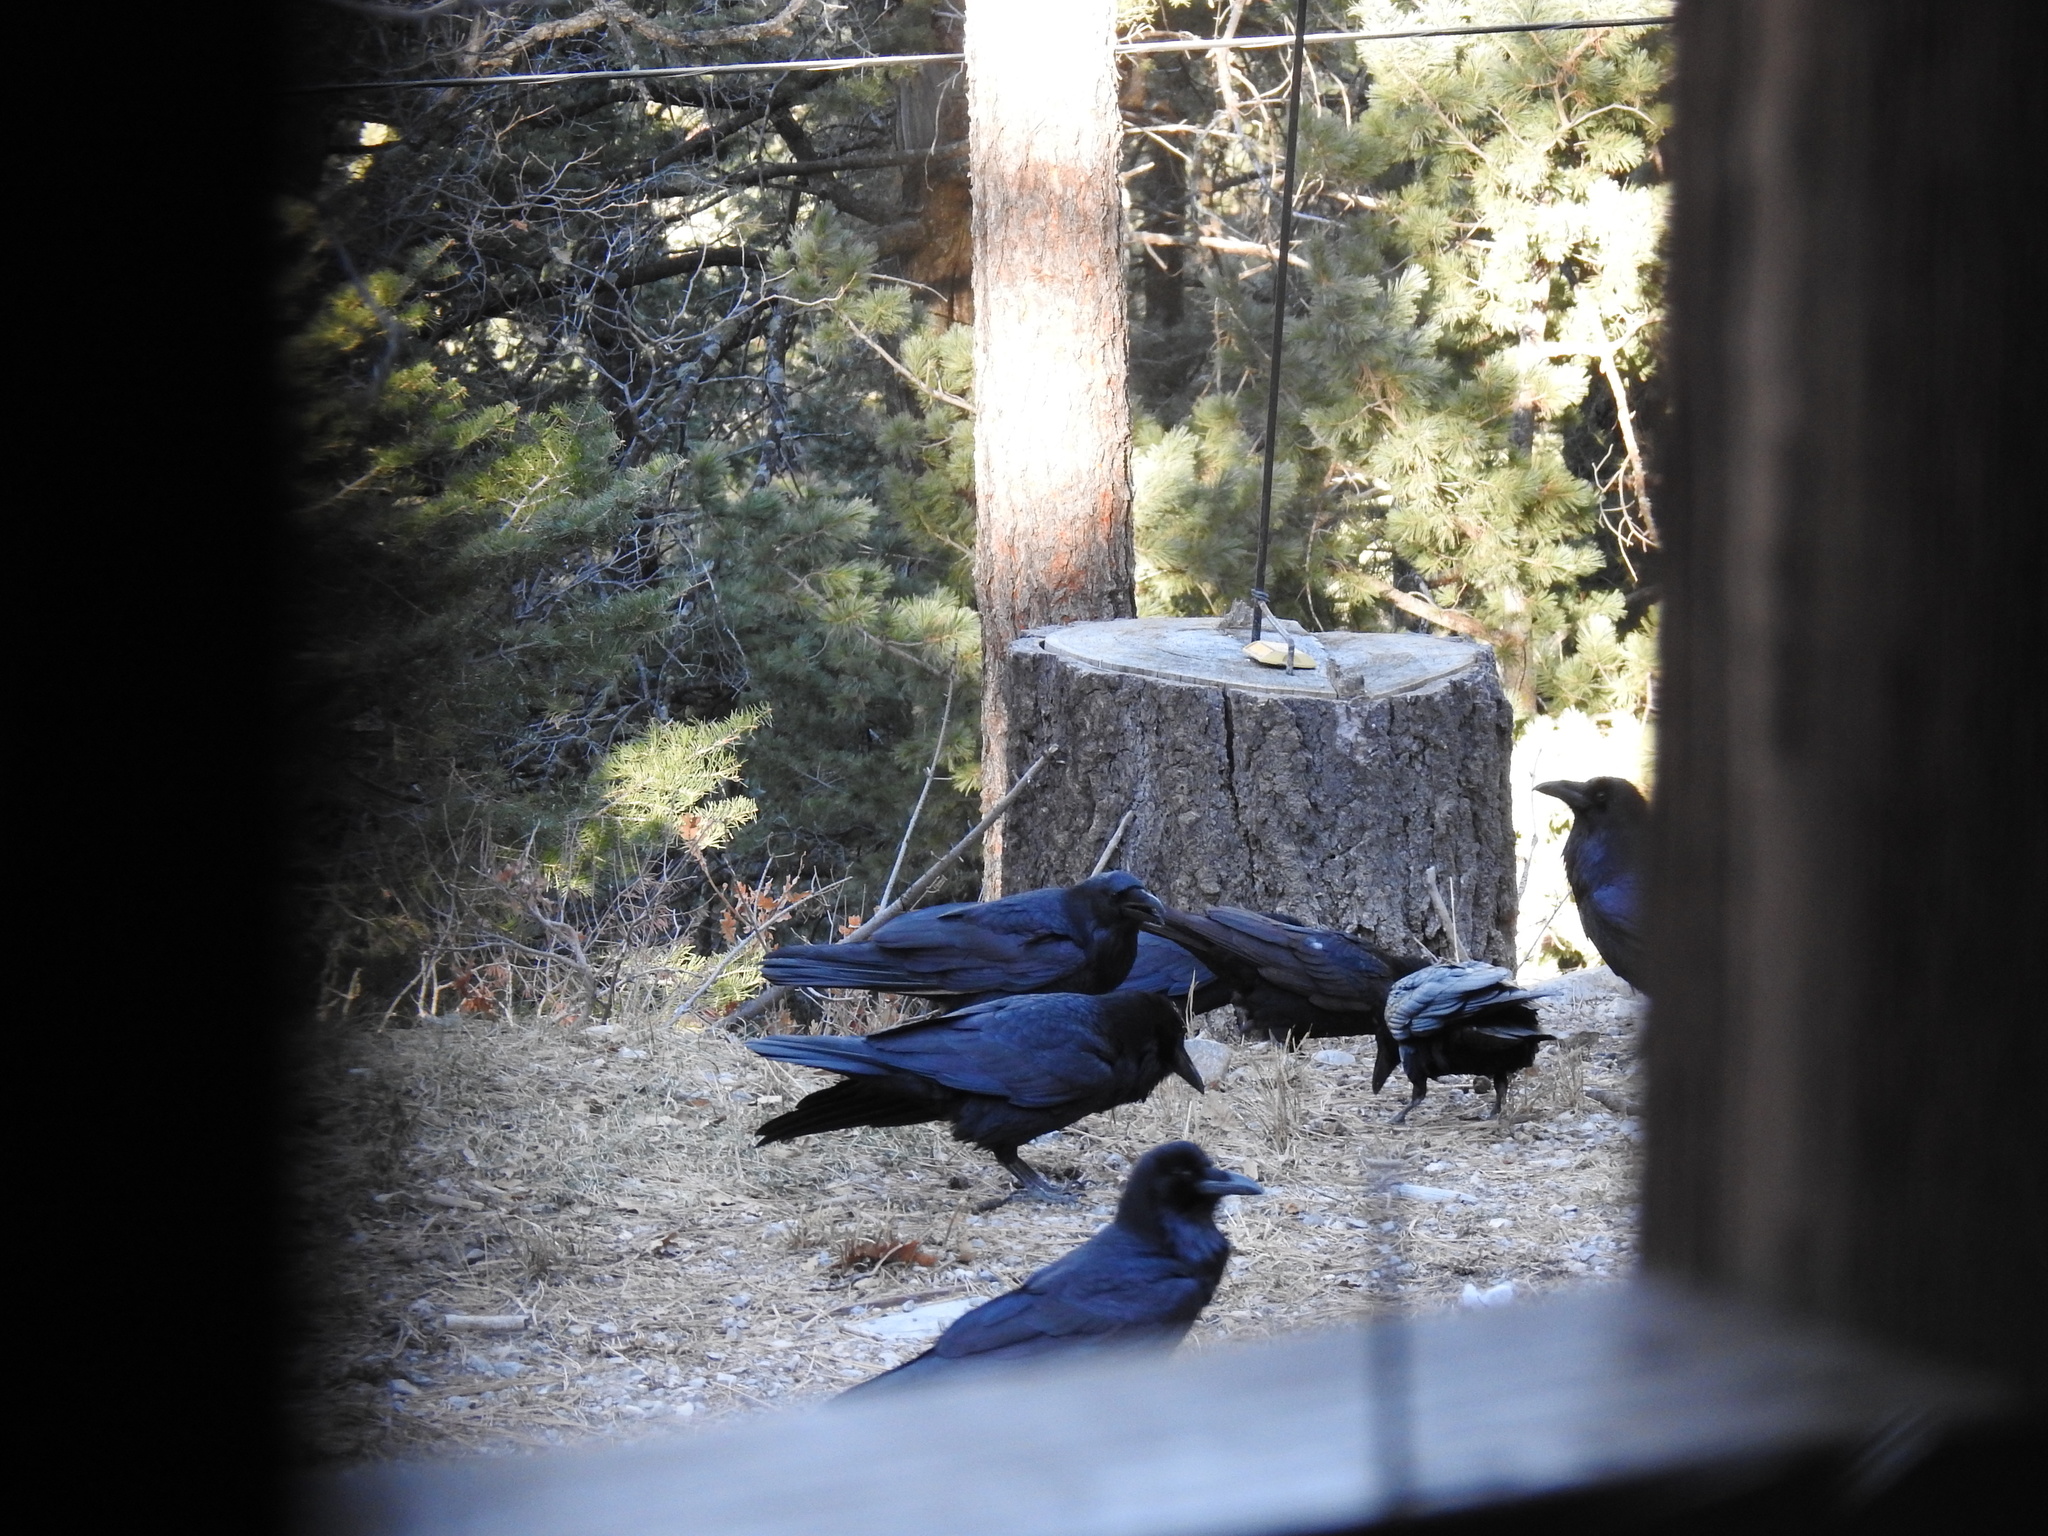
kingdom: Animalia
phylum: Chordata
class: Aves
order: Passeriformes
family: Corvidae
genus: Corvus
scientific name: Corvus corax
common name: Common raven
